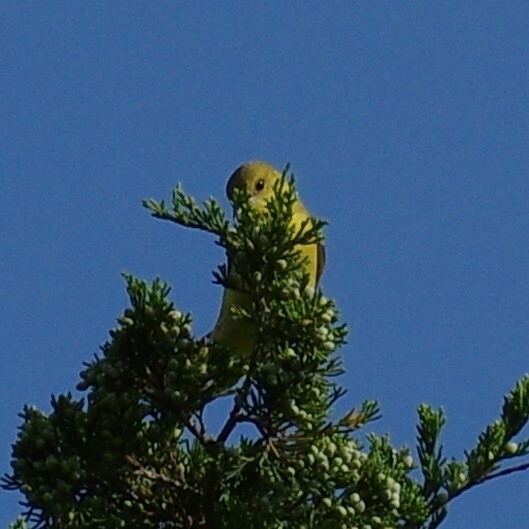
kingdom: Animalia
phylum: Chordata
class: Aves
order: Passeriformes
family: Icteridae
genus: Icterus
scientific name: Icterus spurius
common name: Orchard oriole
